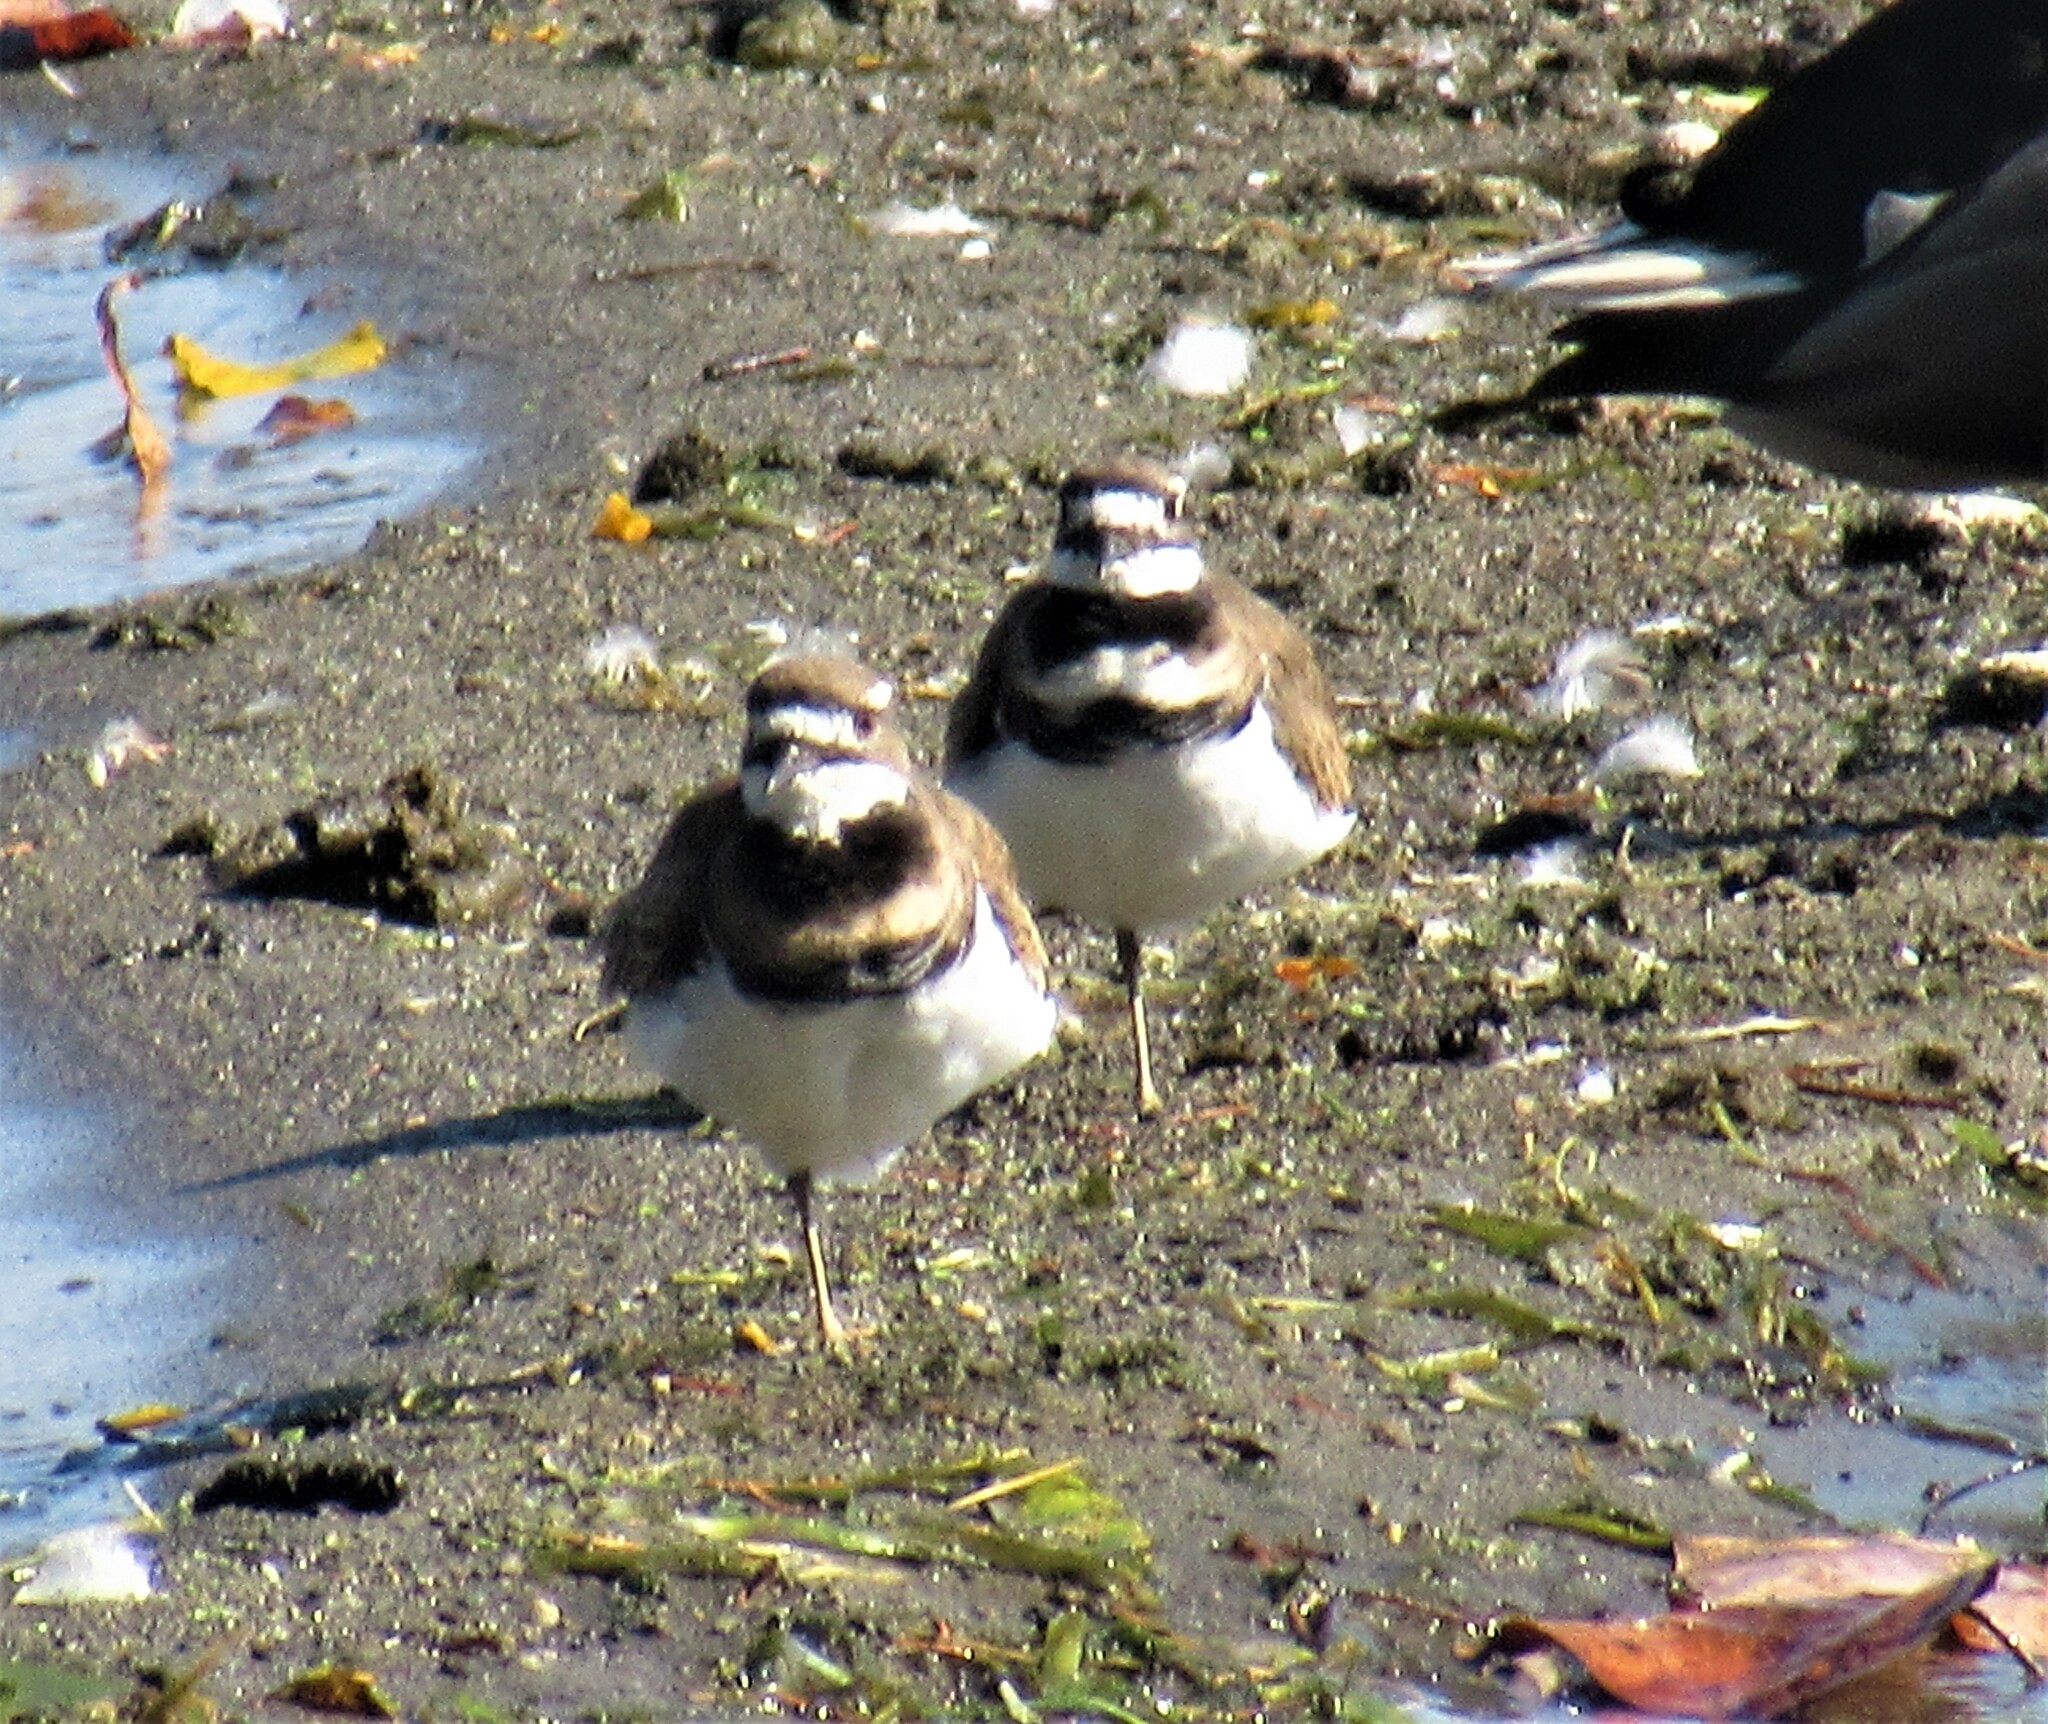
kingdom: Animalia
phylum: Chordata
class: Aves
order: Charadriiformes
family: Charadriidae
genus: Charadrius
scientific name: Charadrius vociferus
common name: Killdeer
